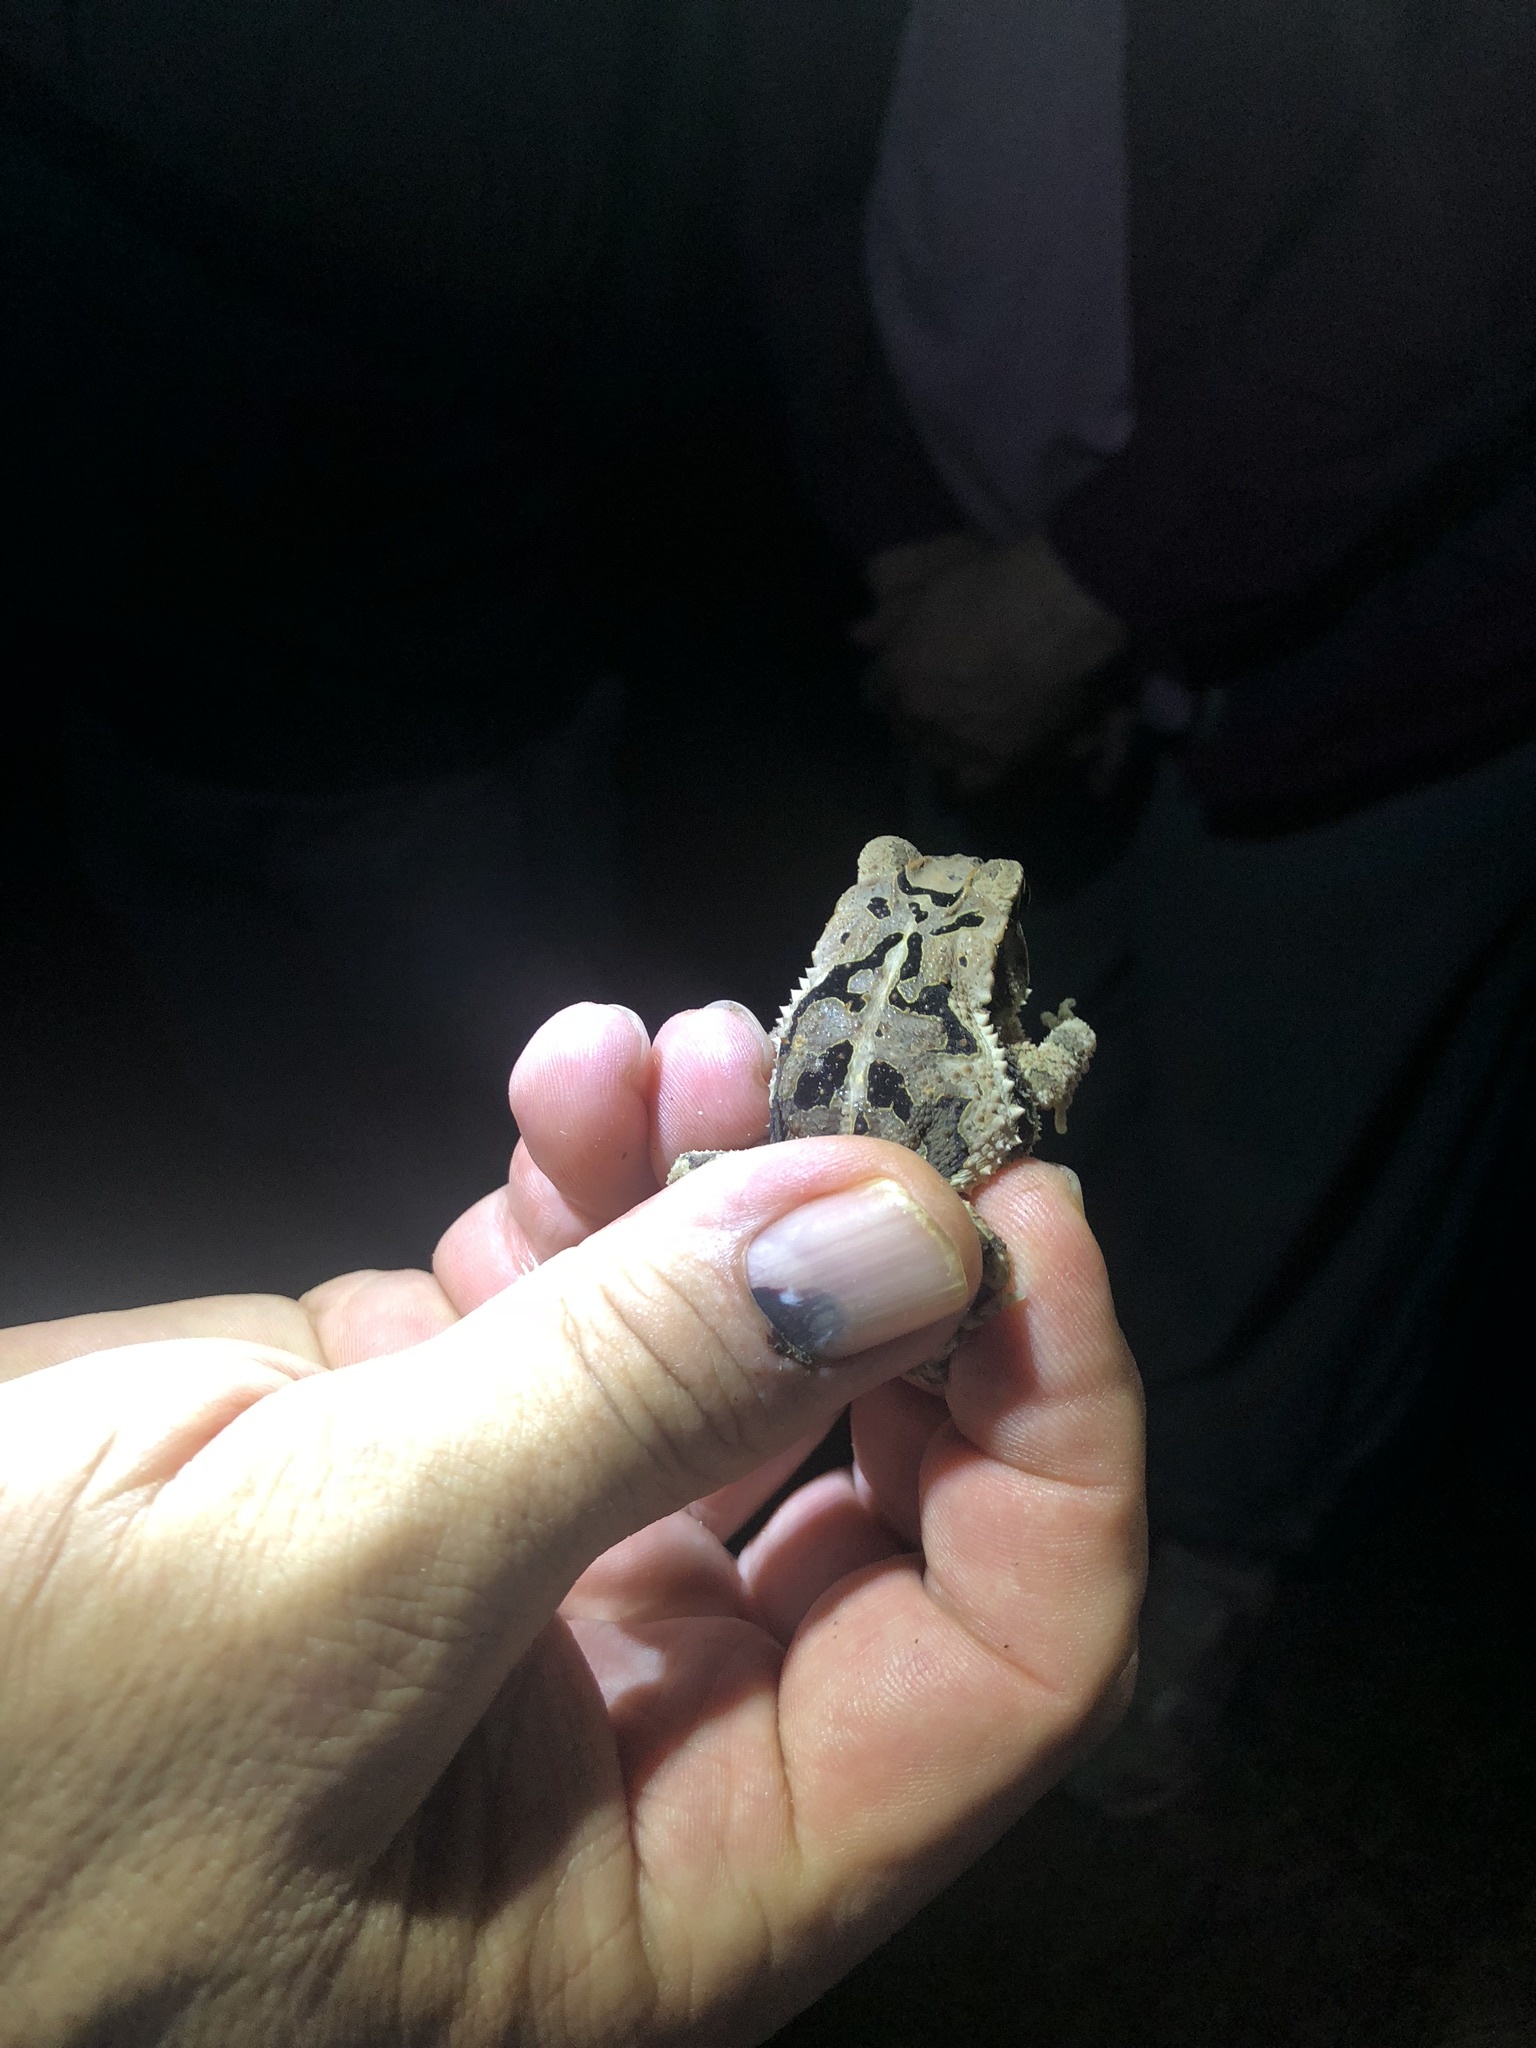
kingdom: Animalia
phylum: Chordata
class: Amphibia
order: Anura
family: Bufonidae
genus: Incilius
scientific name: Incilius valliceps
